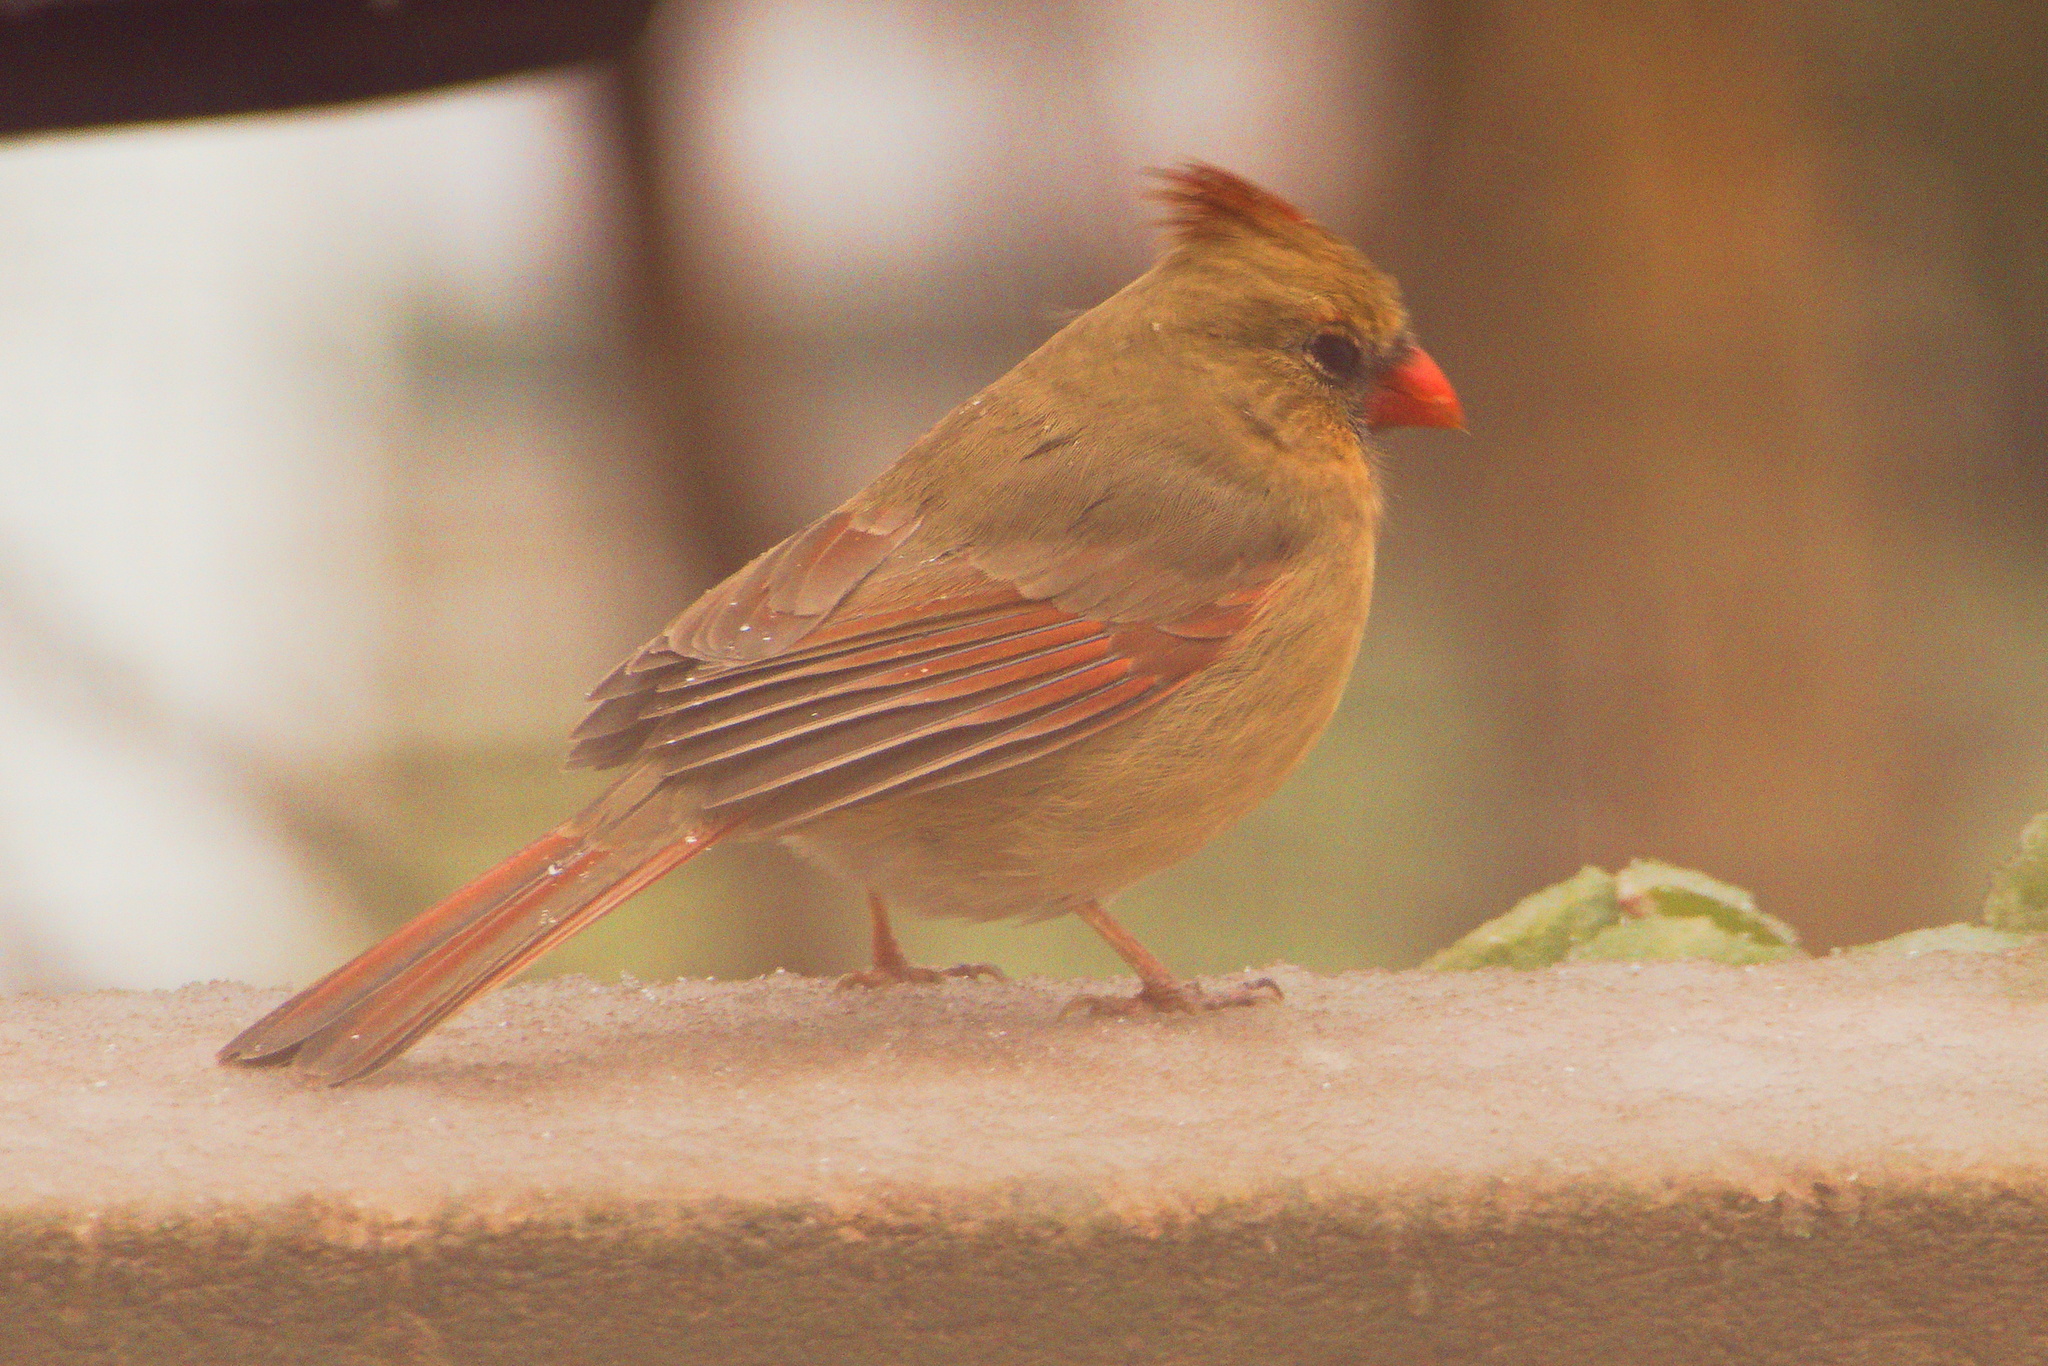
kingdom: Animalia
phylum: Chordata
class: Aves
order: Passeriformes
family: Cardinalidae
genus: Cardinalis
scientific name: Cardinalis cardinalis
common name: Northern cardinal
